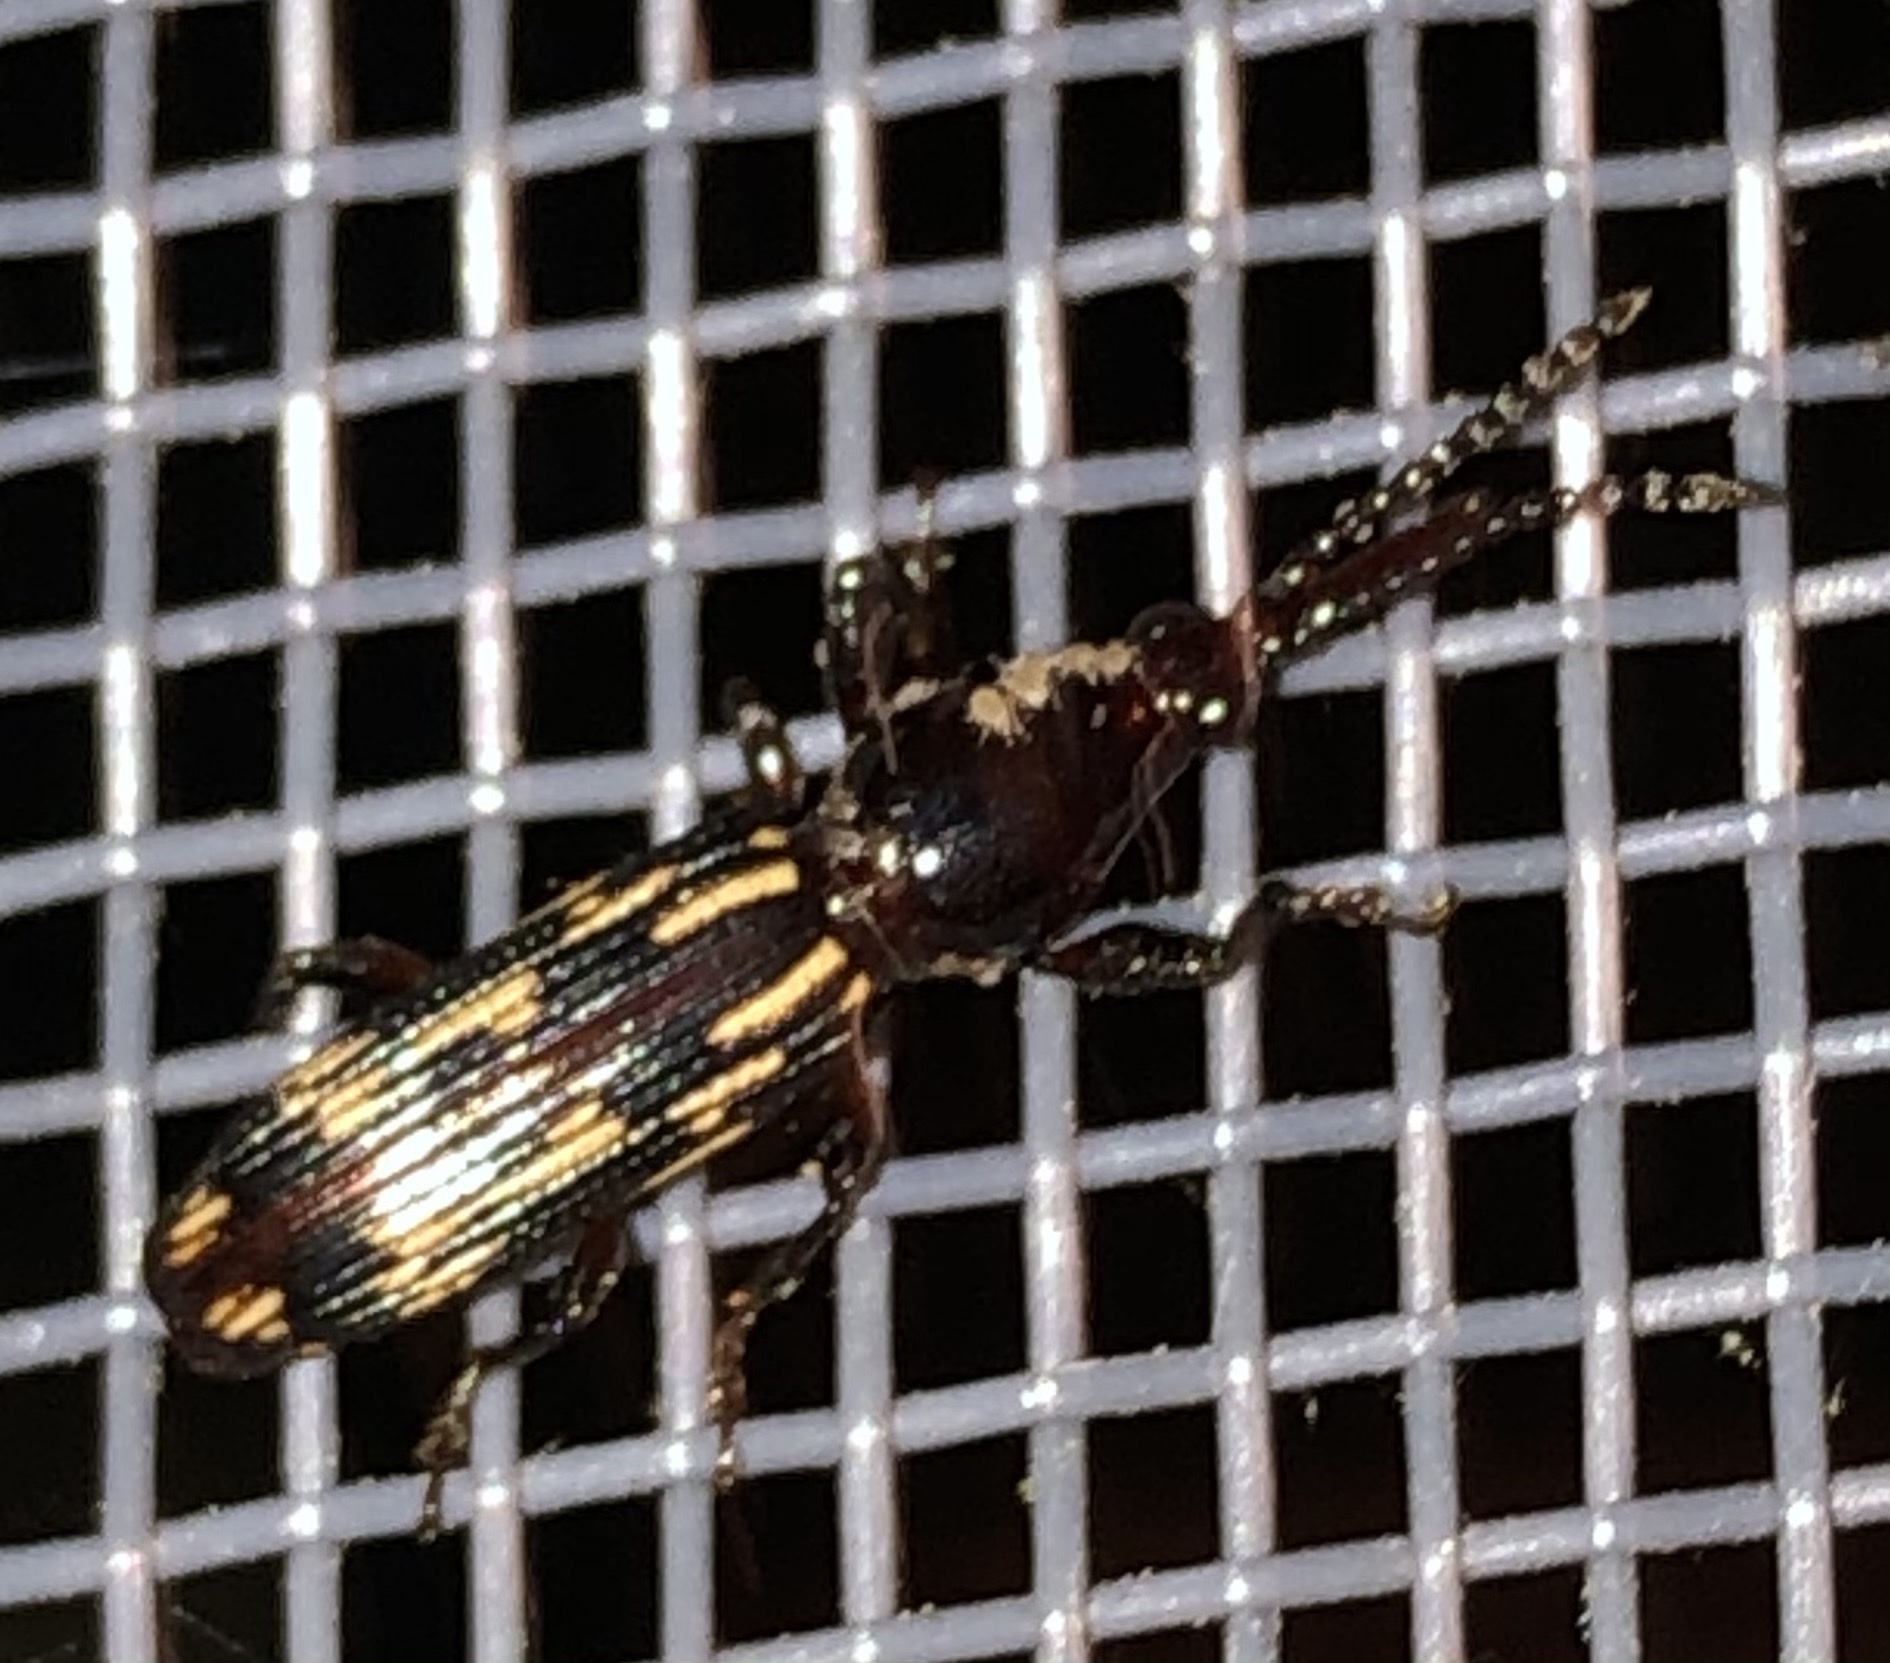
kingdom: Animalia
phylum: Arthropoda
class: Insecta
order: Coleoptera
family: Brentidae
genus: Arrenodes
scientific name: Arrenodes minutus
